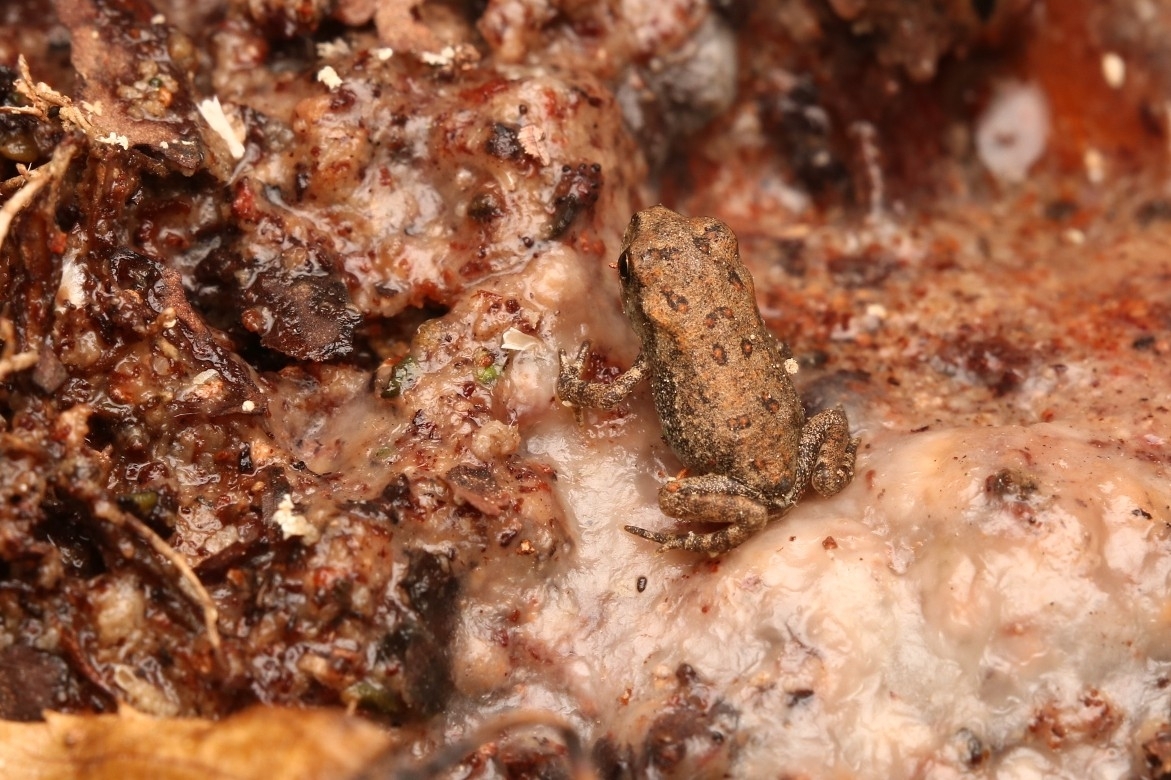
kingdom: Animalia
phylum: Chordata
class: Amphibia
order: Anura
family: Bufonidae
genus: Anaxyrus
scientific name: Anaxyrus americanus
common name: American toad
